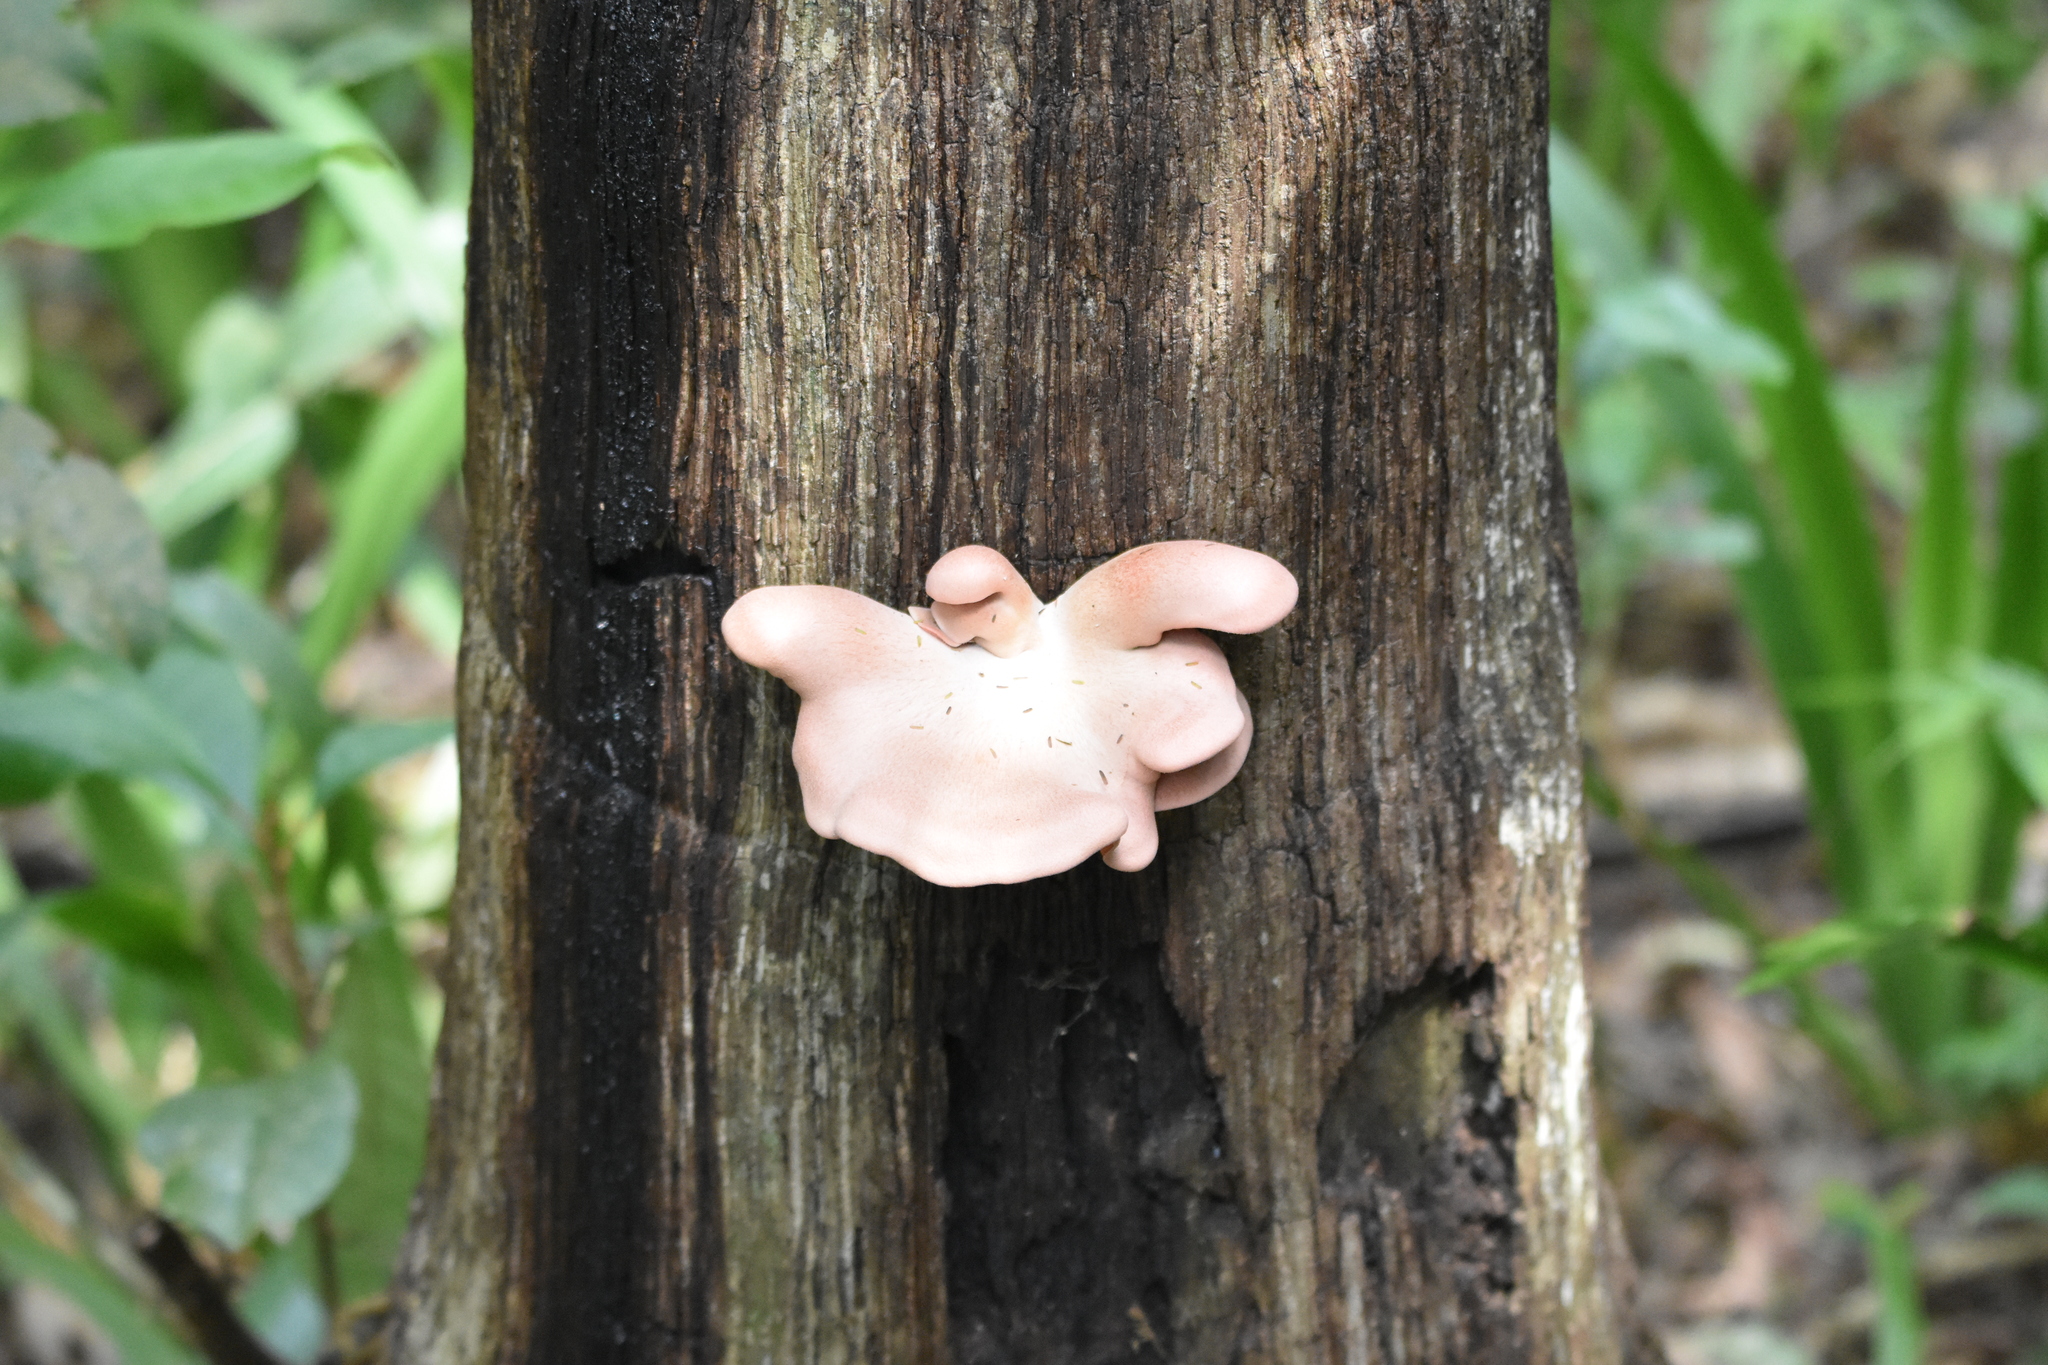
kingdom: Fungi
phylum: Basidiomycota
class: Agaricomycetes
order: Agaricales
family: Pleurotaceae
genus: Pleurotus
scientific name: Pleurotus djamor
